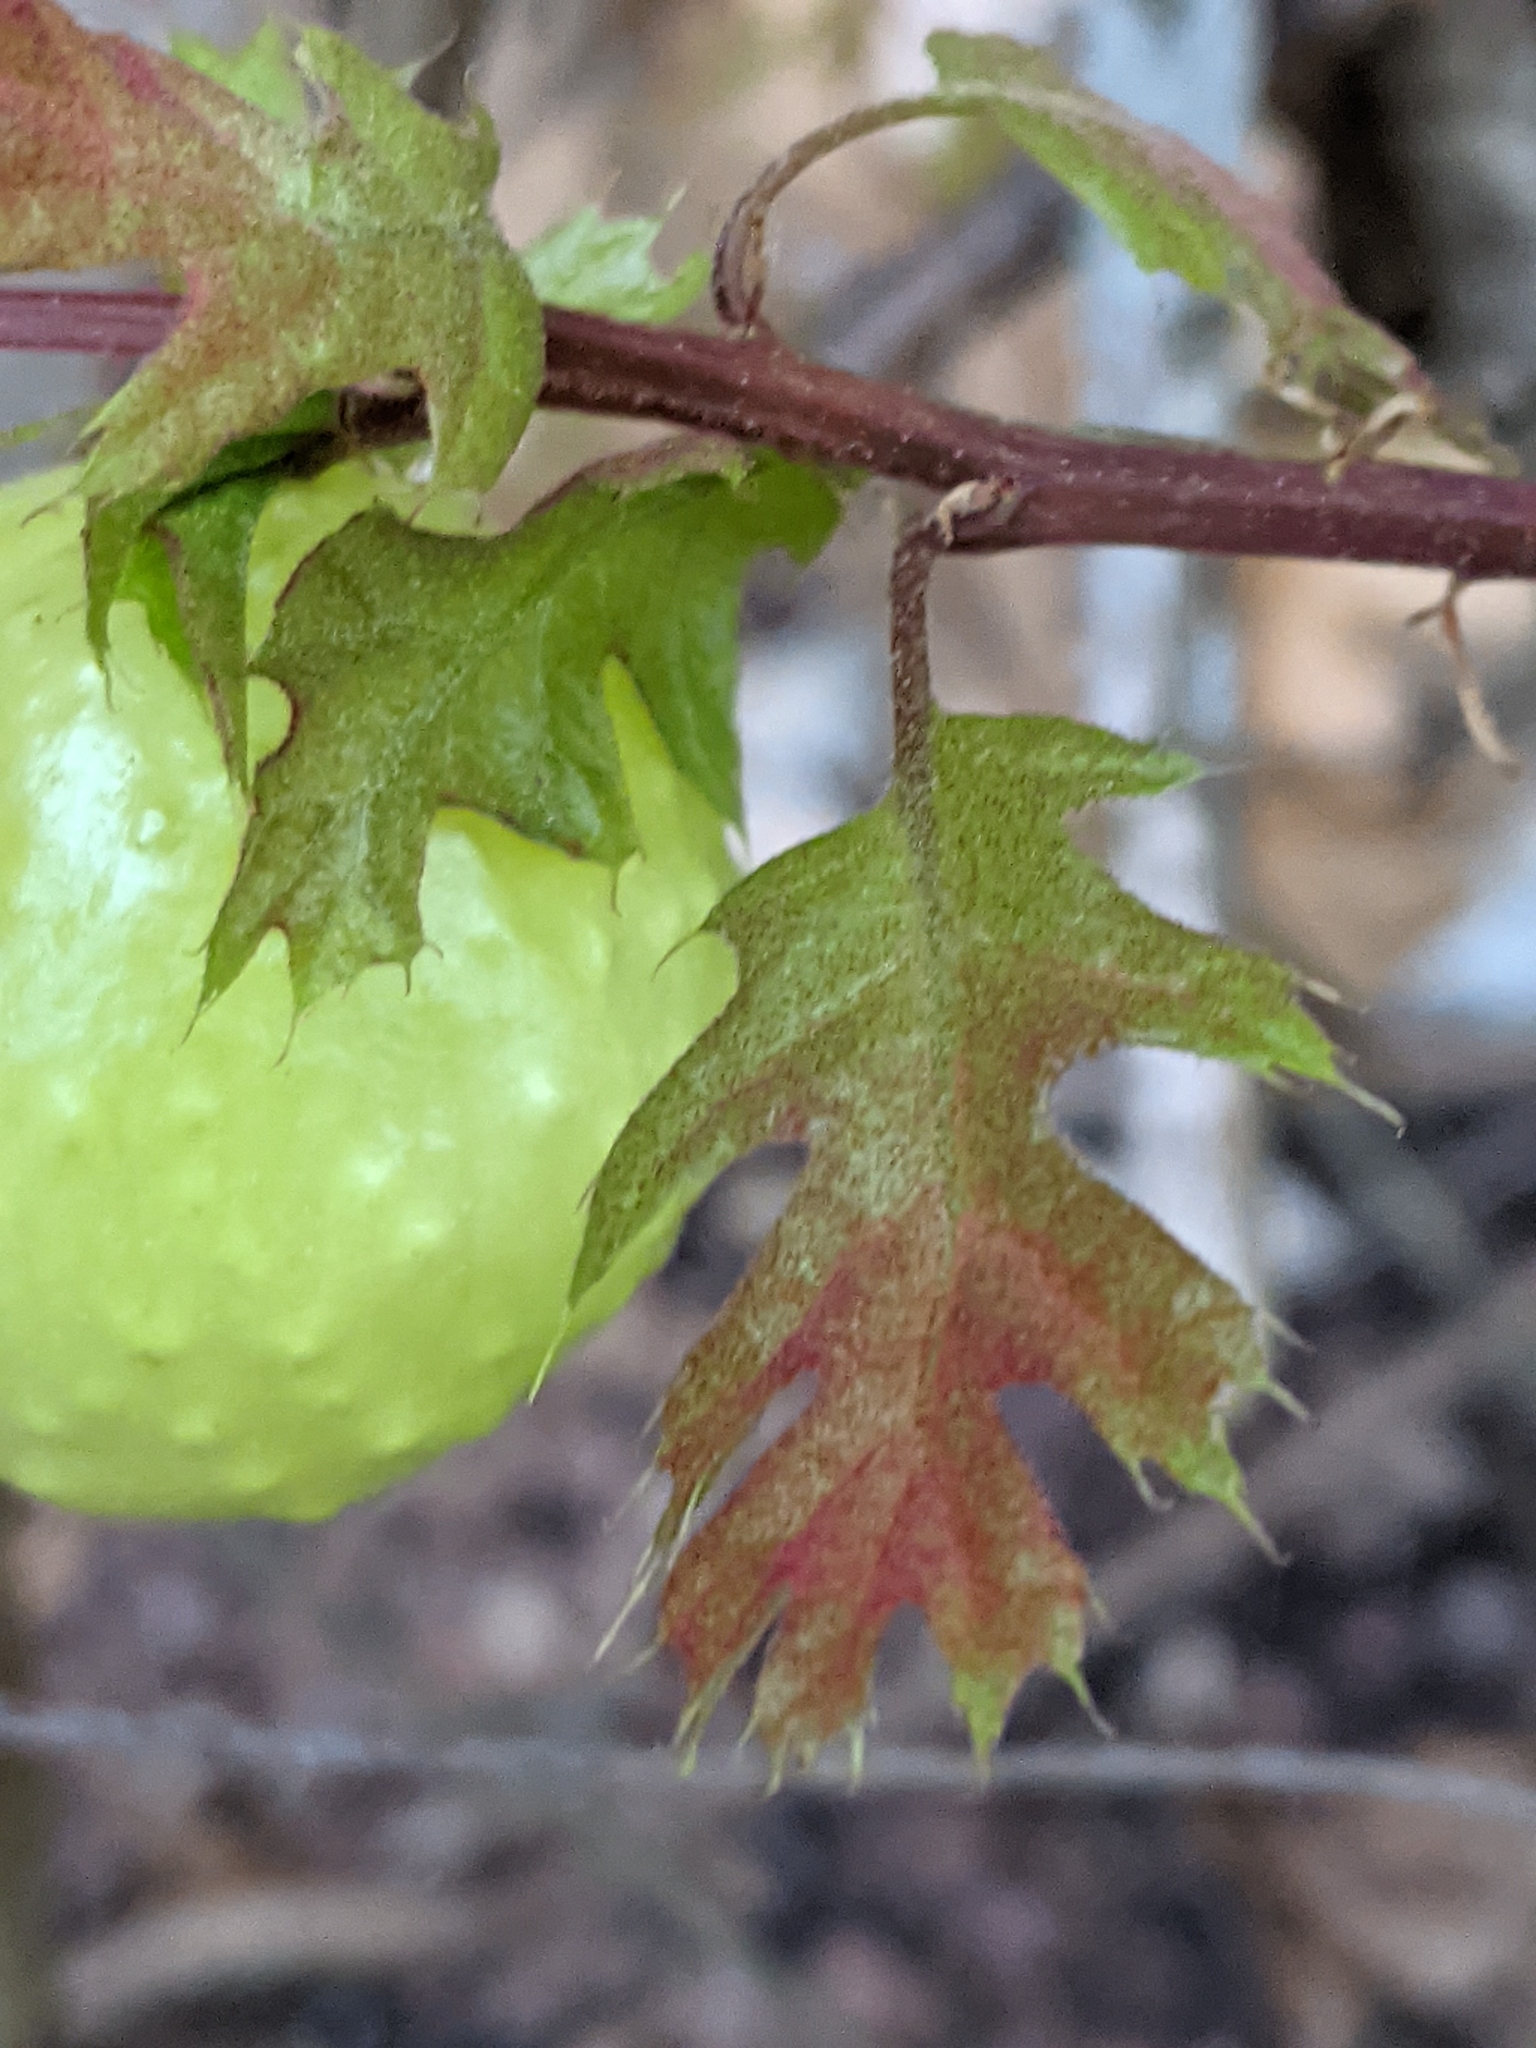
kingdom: Animalia
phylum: Arthropoda
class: Insecta
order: Hymenoptera
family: Cynipidae
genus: Amphibolips
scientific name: Amphibolips
